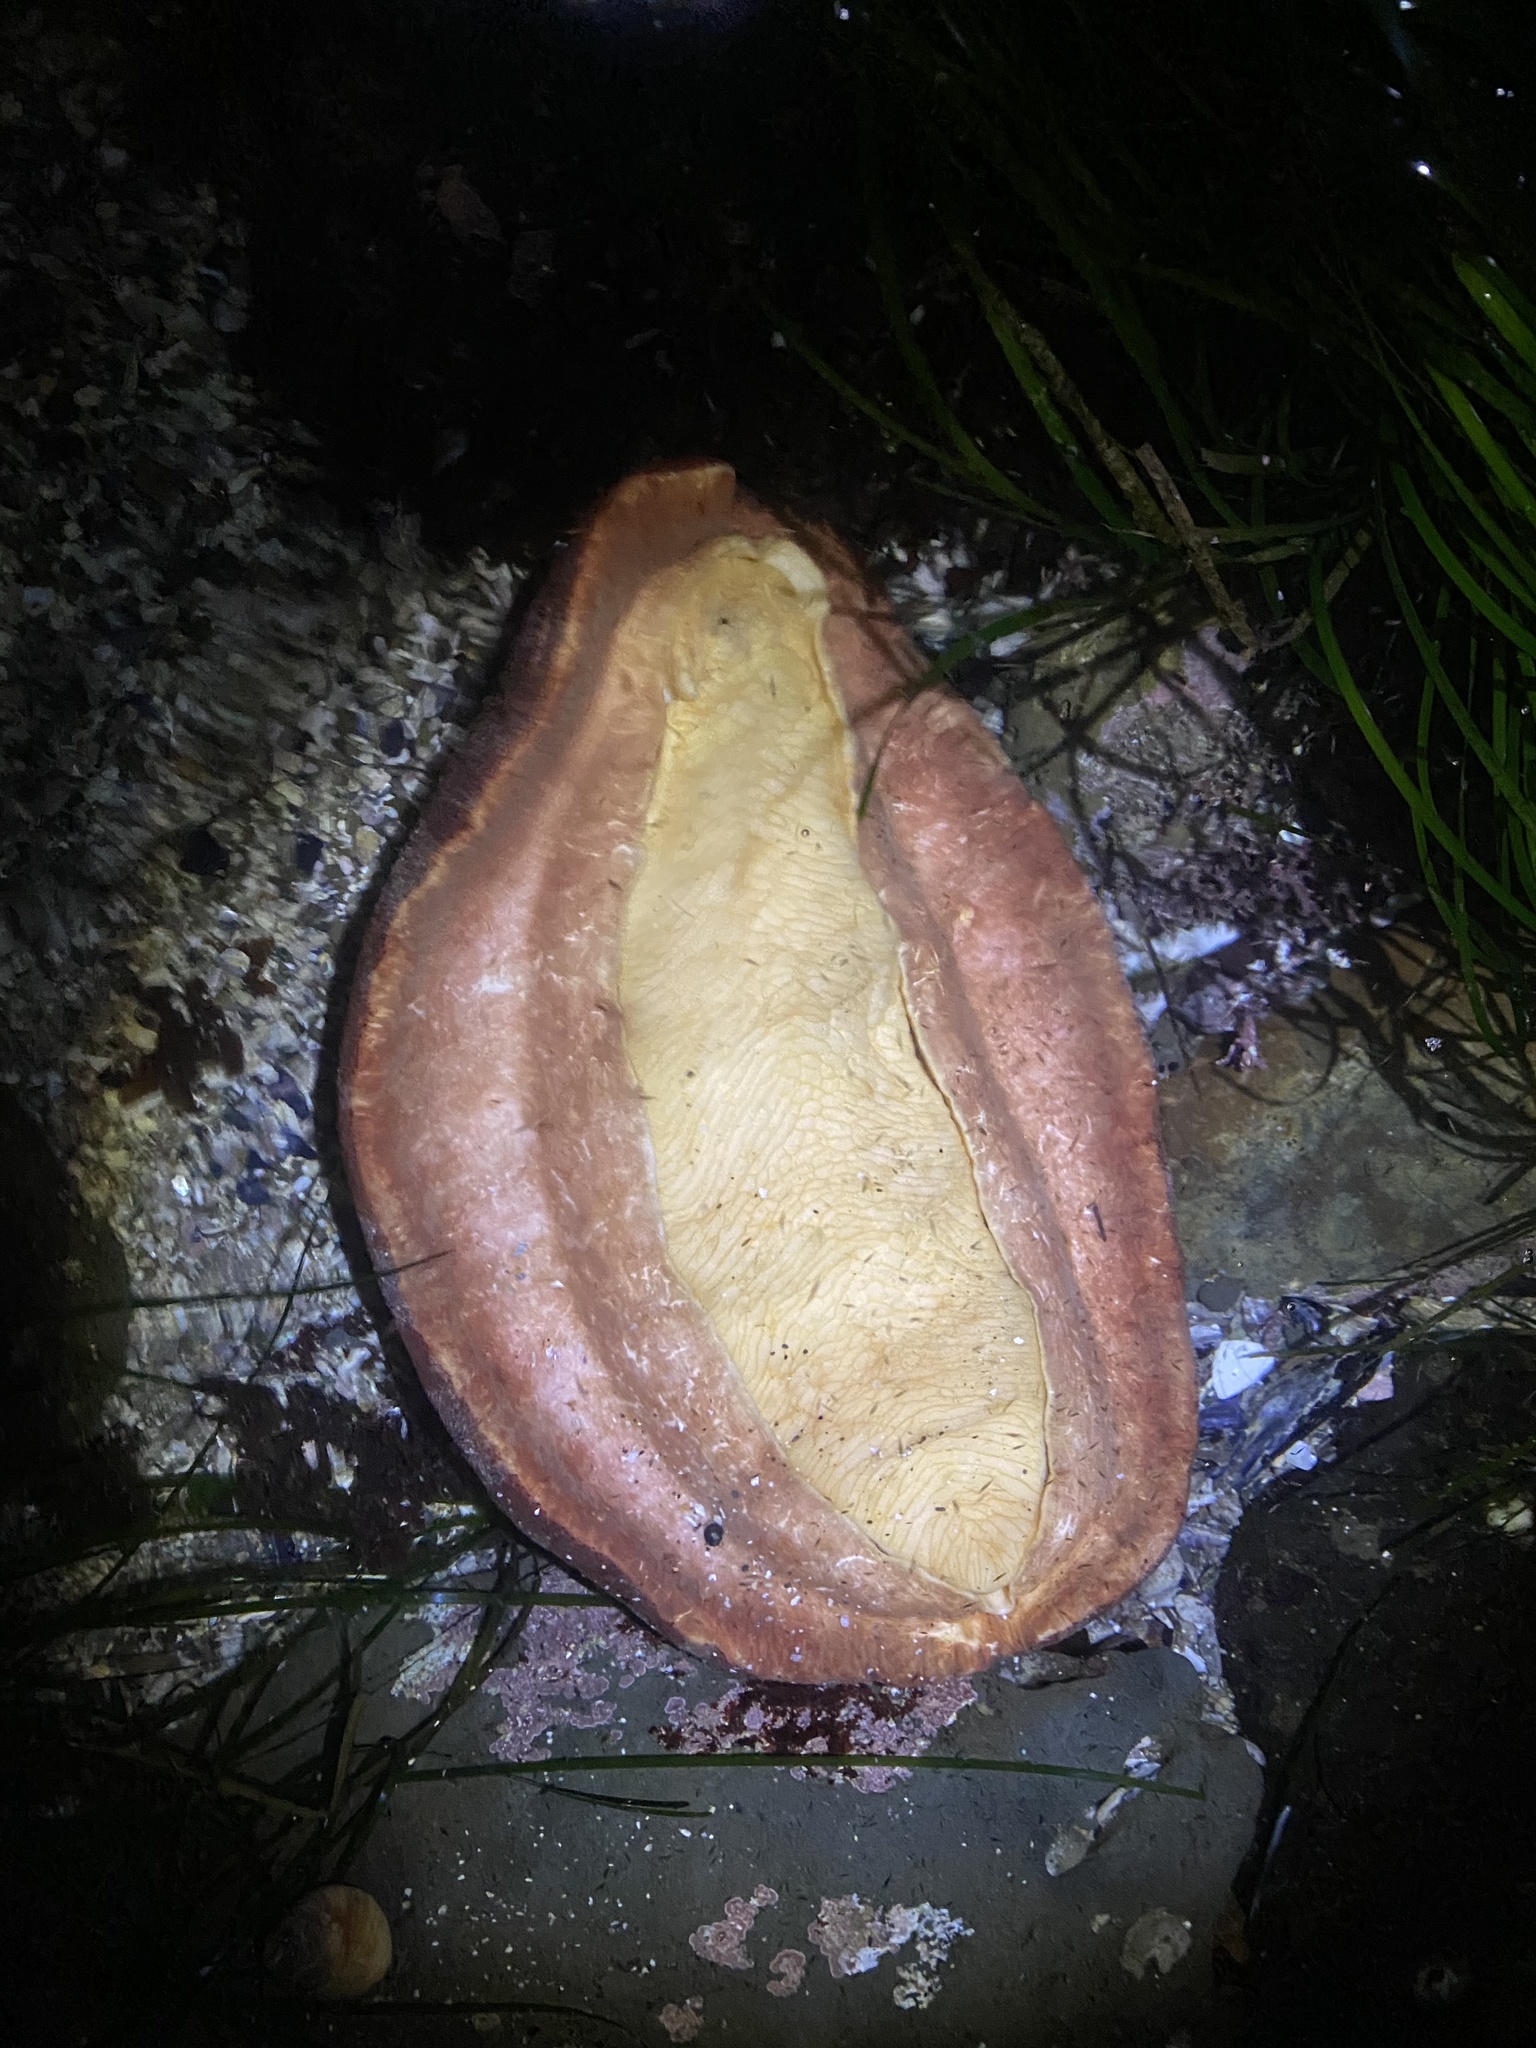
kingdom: Animalia
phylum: Mollusca
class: Polyplacophora
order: Chitonida
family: Acanthochitonidae
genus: Cryptochiton
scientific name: Cryptochiton stelleri
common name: Giant pacific chiton
